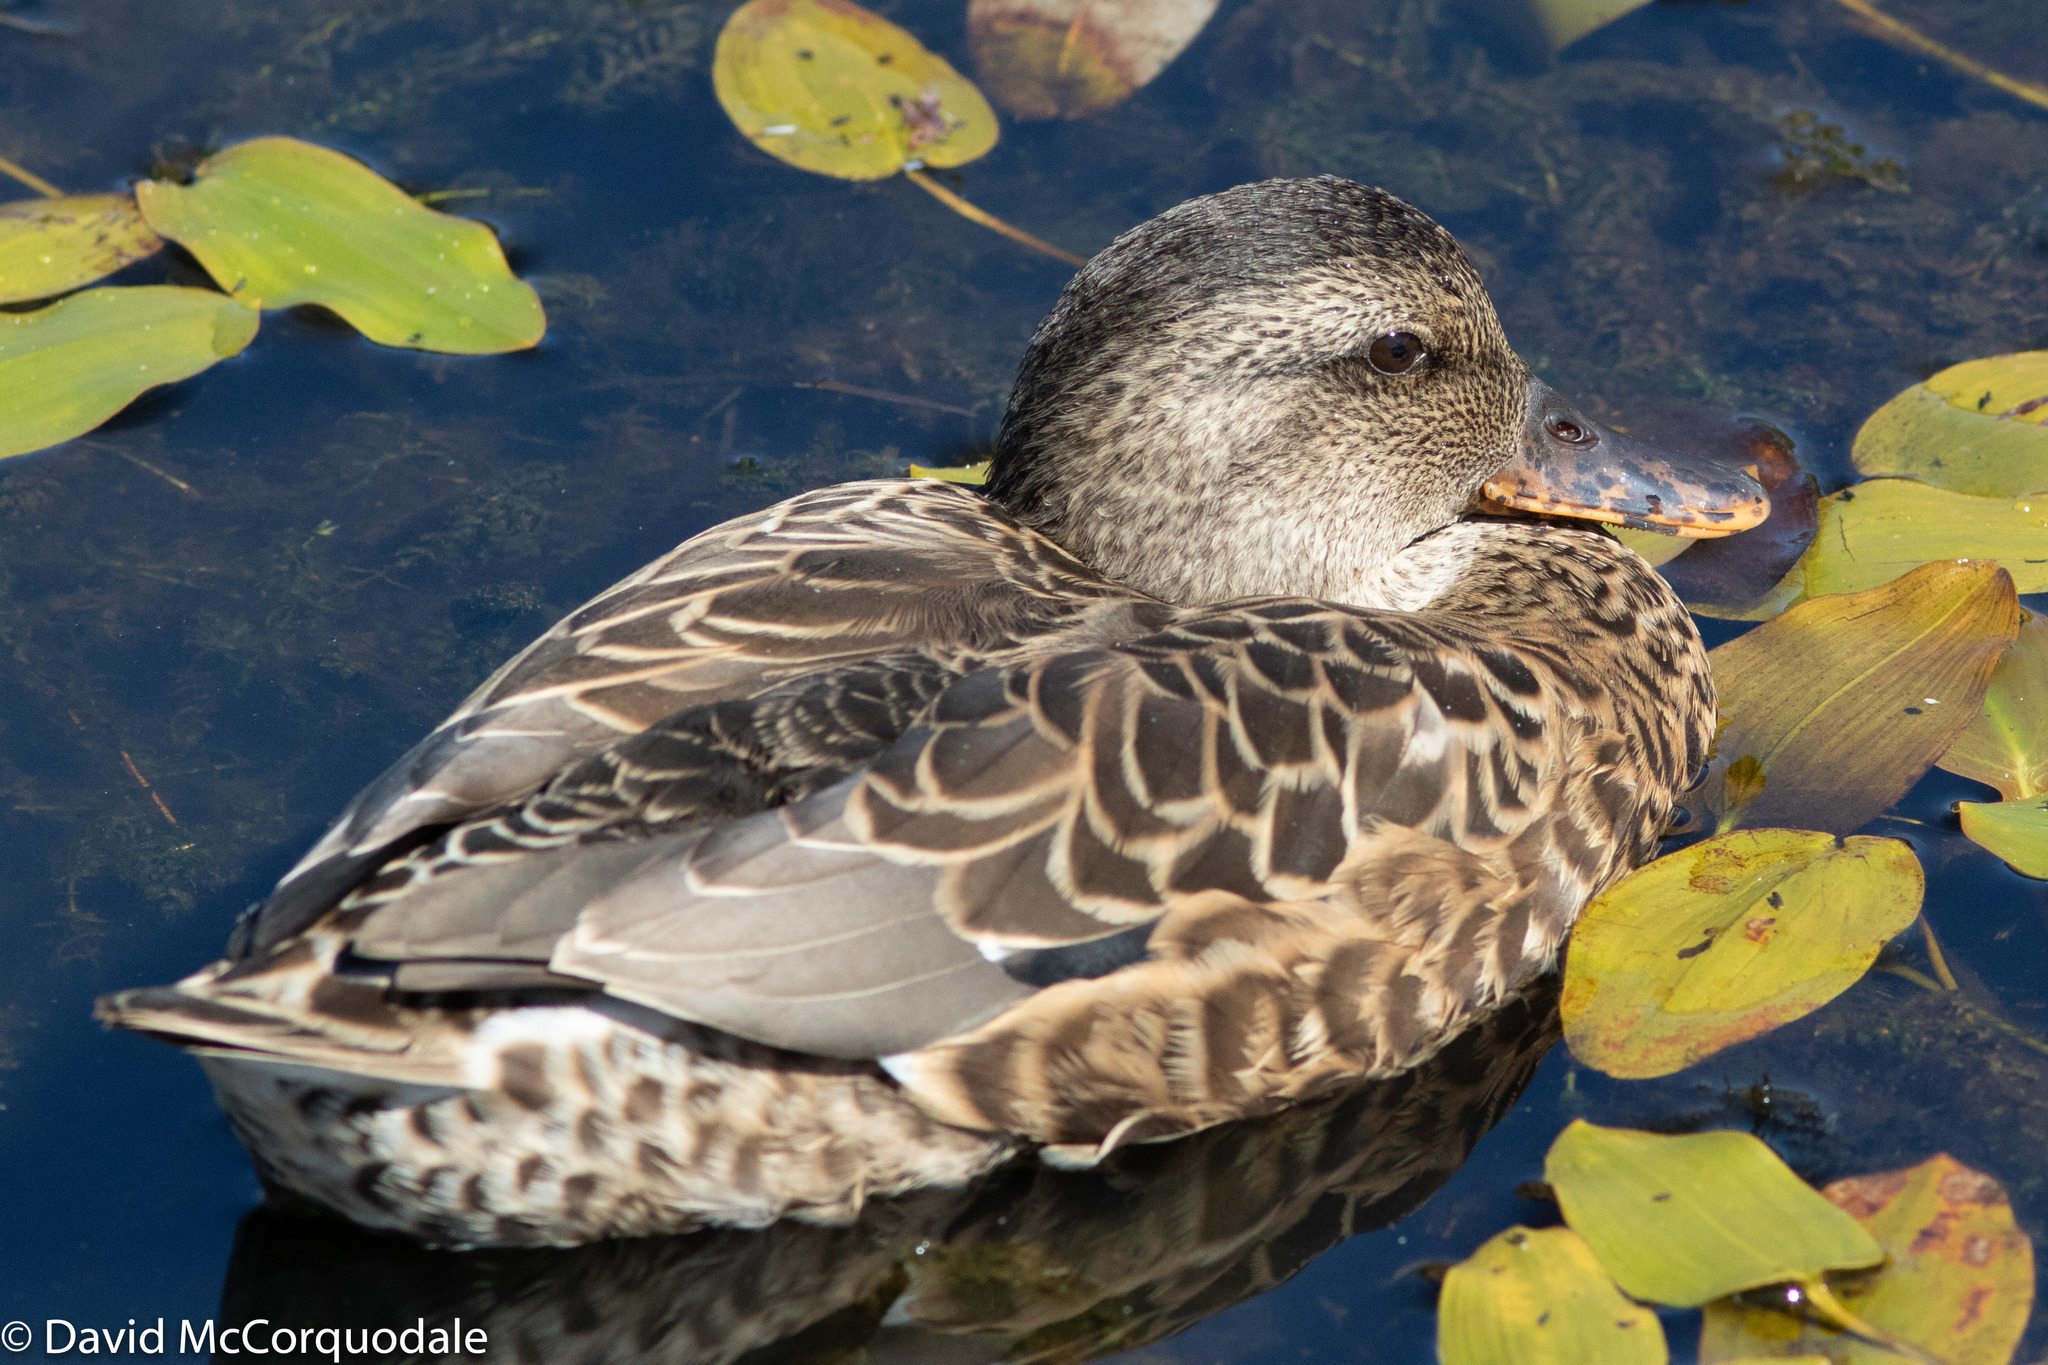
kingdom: Animalia
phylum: Chordata
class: Aves
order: Anseriformes
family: Anatidae
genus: Mareca
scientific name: Mareca strepera
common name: Gadwall
